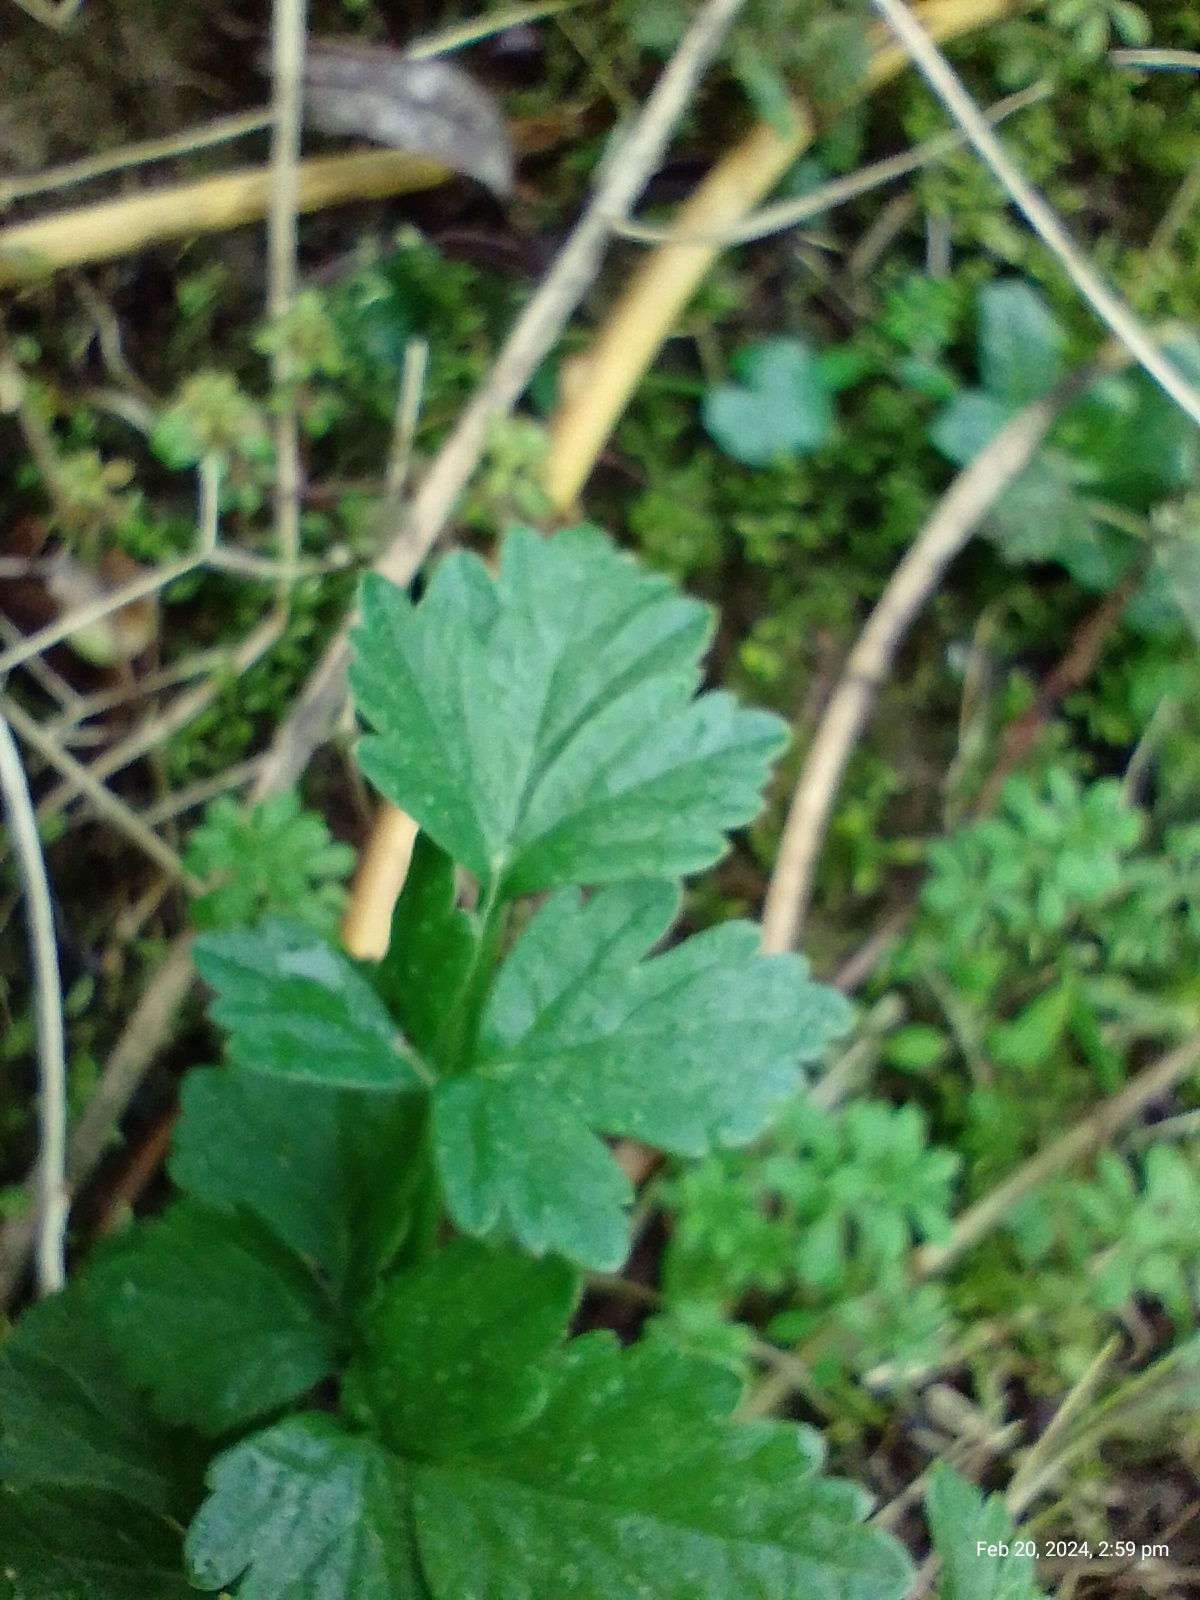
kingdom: Plantae
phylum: Tracheophyta
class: Magnoliopsida
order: Apiales
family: Apiaceae
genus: Oenanthe
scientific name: Oenanthe crocata
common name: Hemlock water-dropwort
